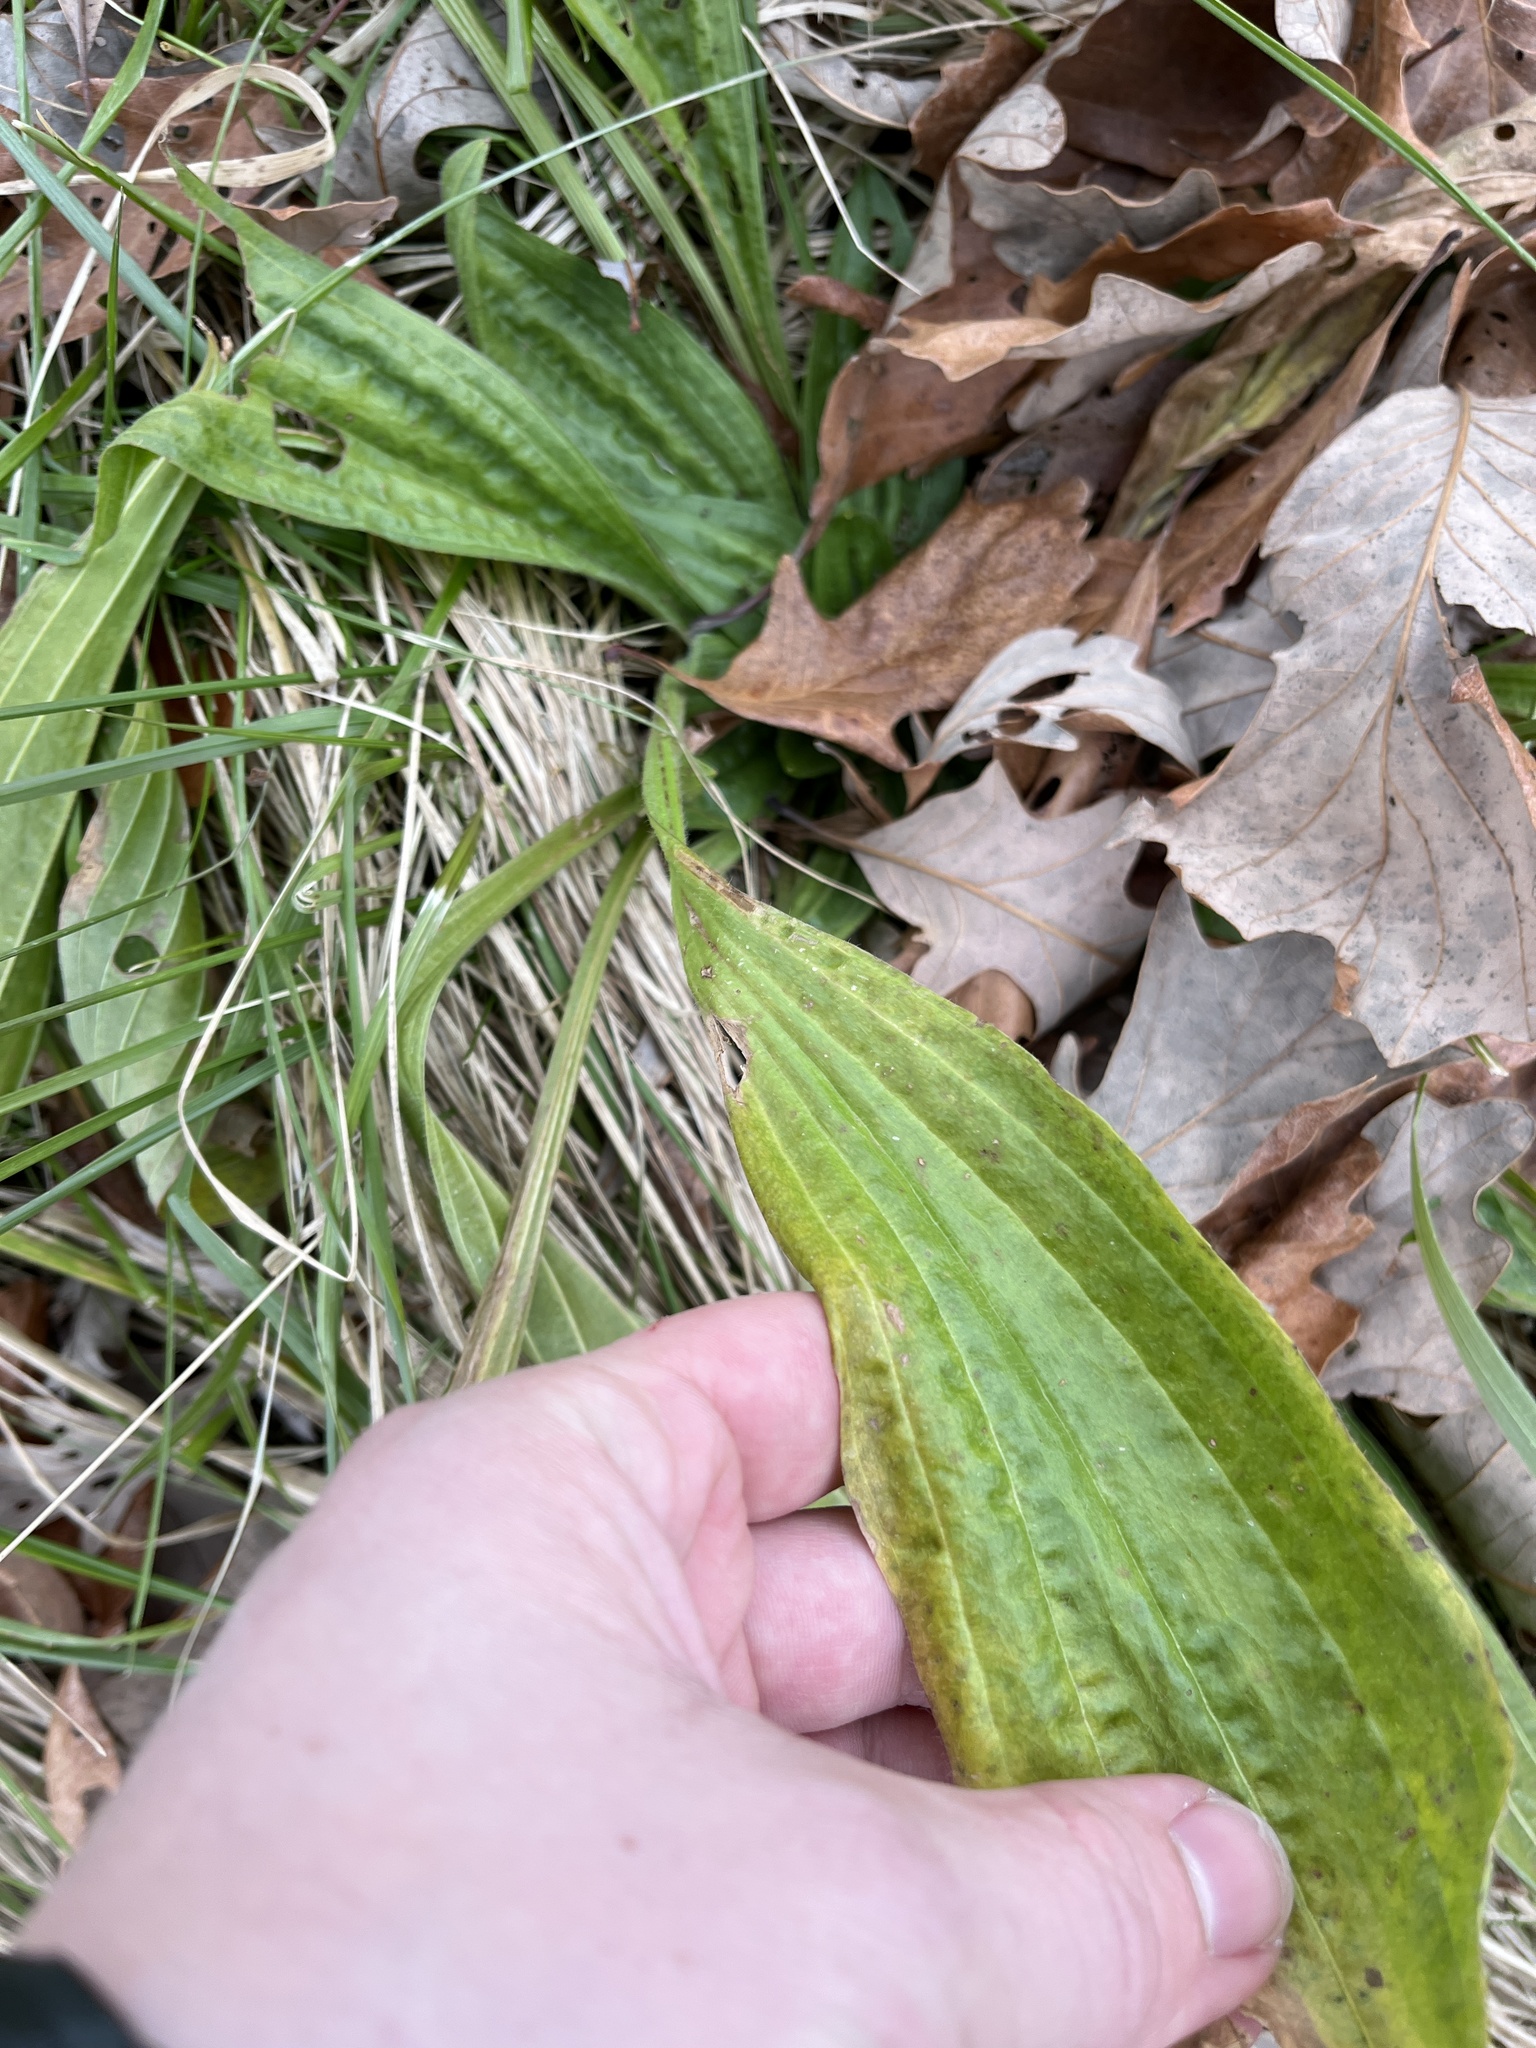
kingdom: Plantae
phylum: Tracheophyta
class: Magnoliopsida
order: Lamiales
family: Plantaginaceae
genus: Plantago
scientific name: Plantago lanceolata
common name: Ribwort plantain
